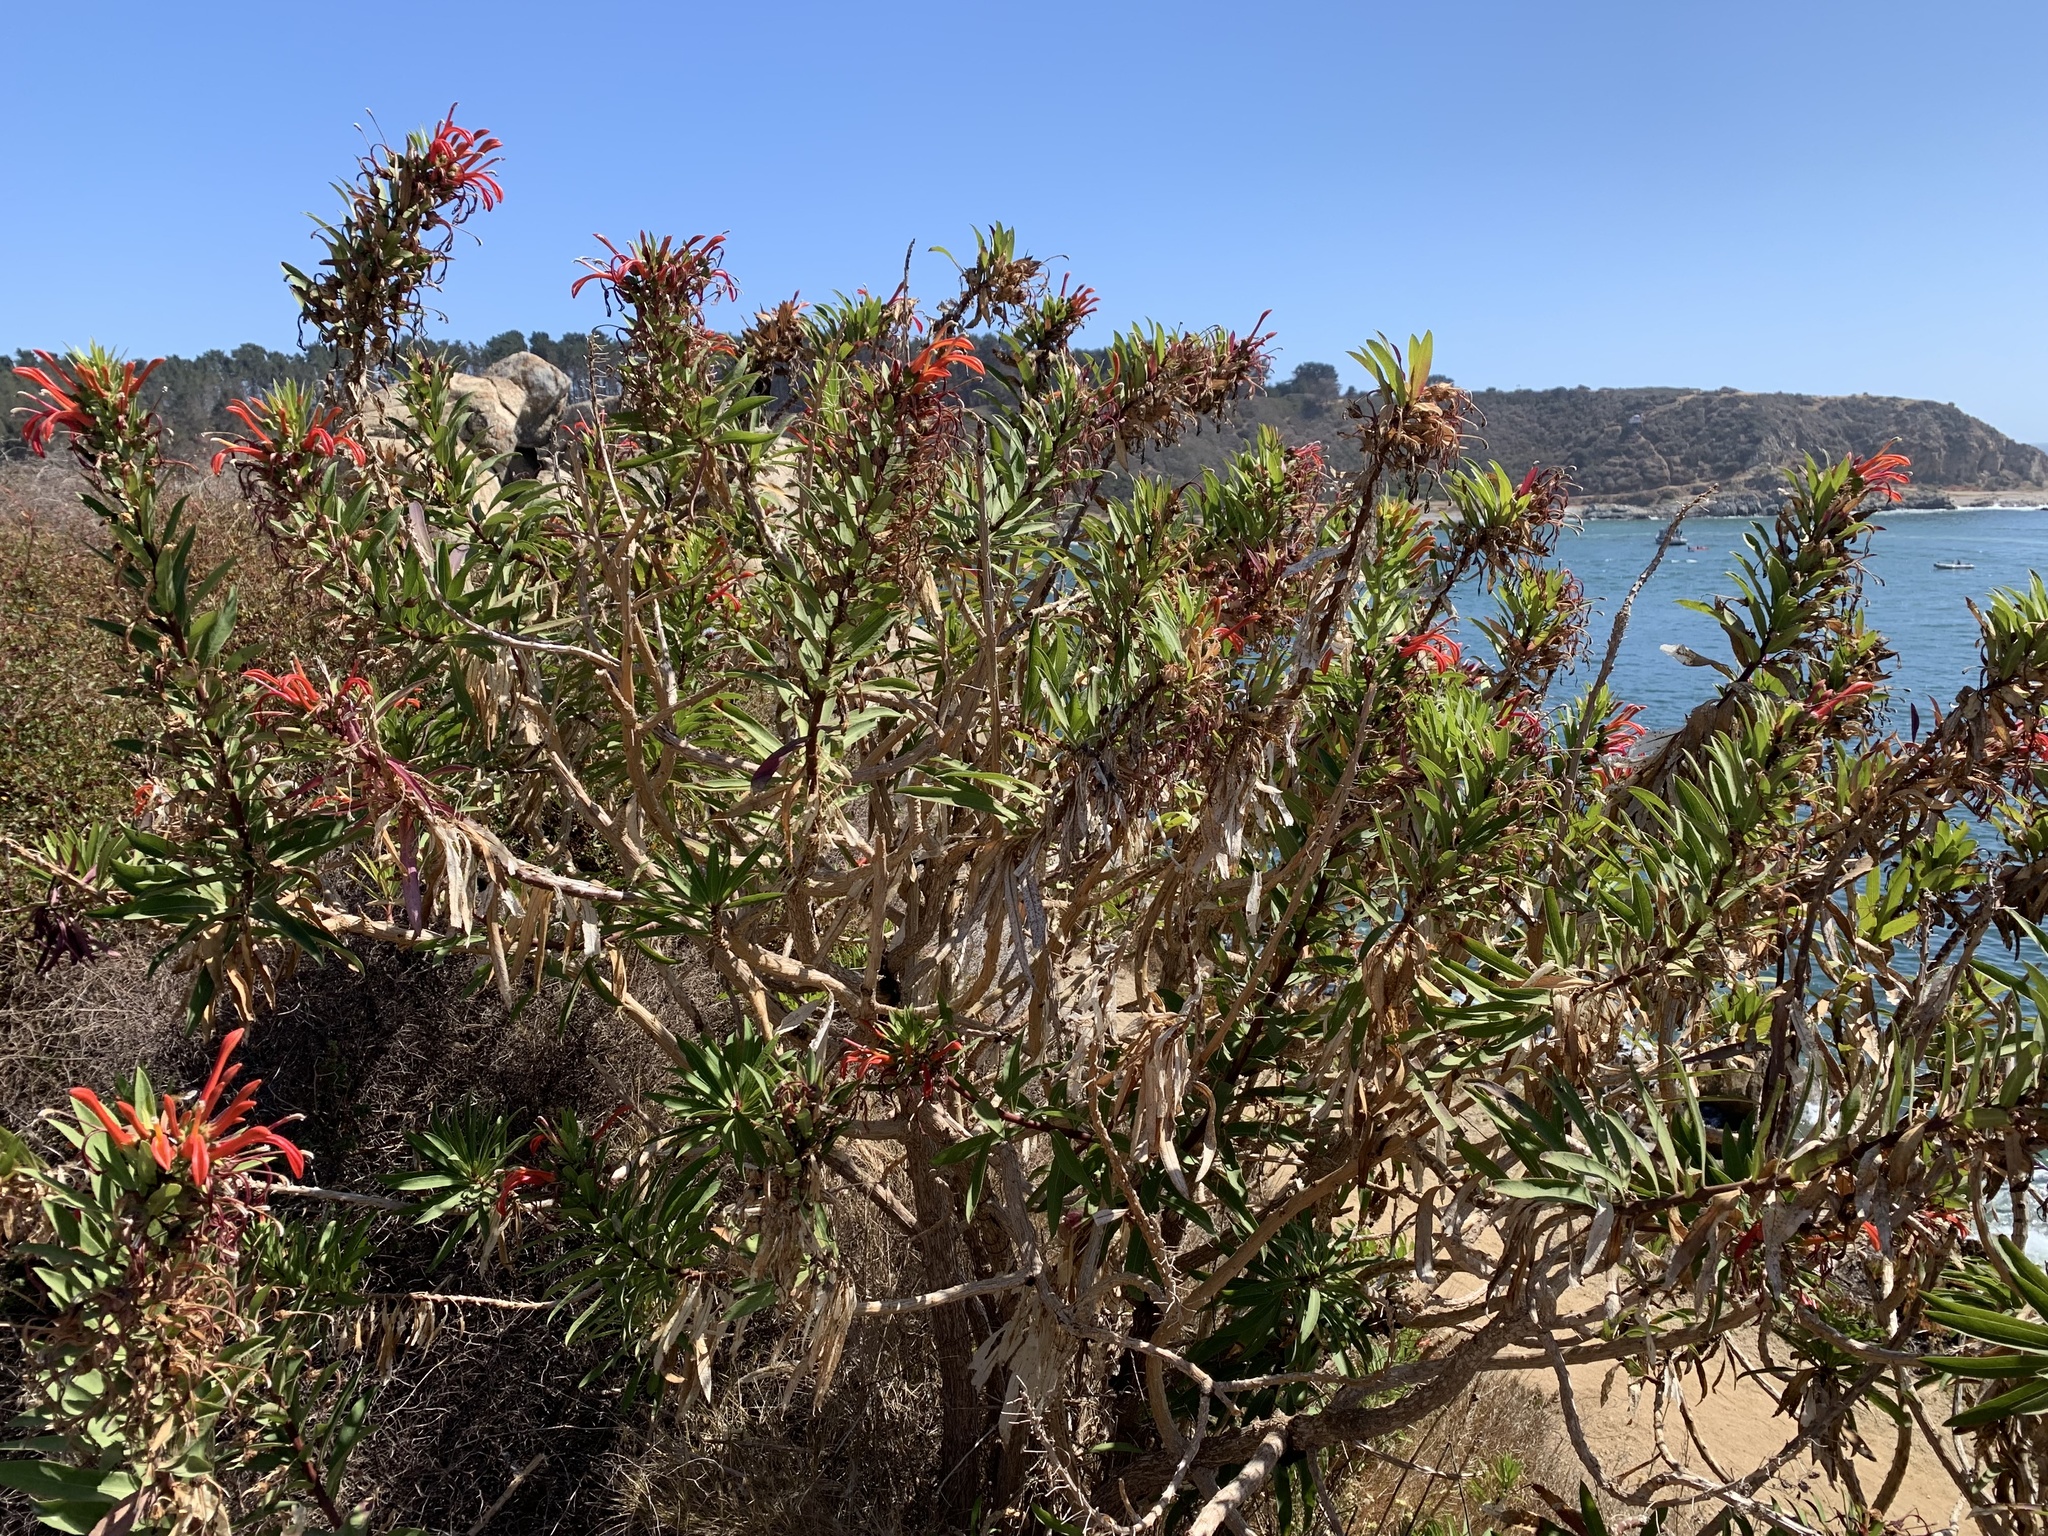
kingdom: Plantae
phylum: Tracheophyta
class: Magnoliopsida
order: Asterales
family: Campanulaceae
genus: Lobelia
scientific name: Lobelia excelsa
